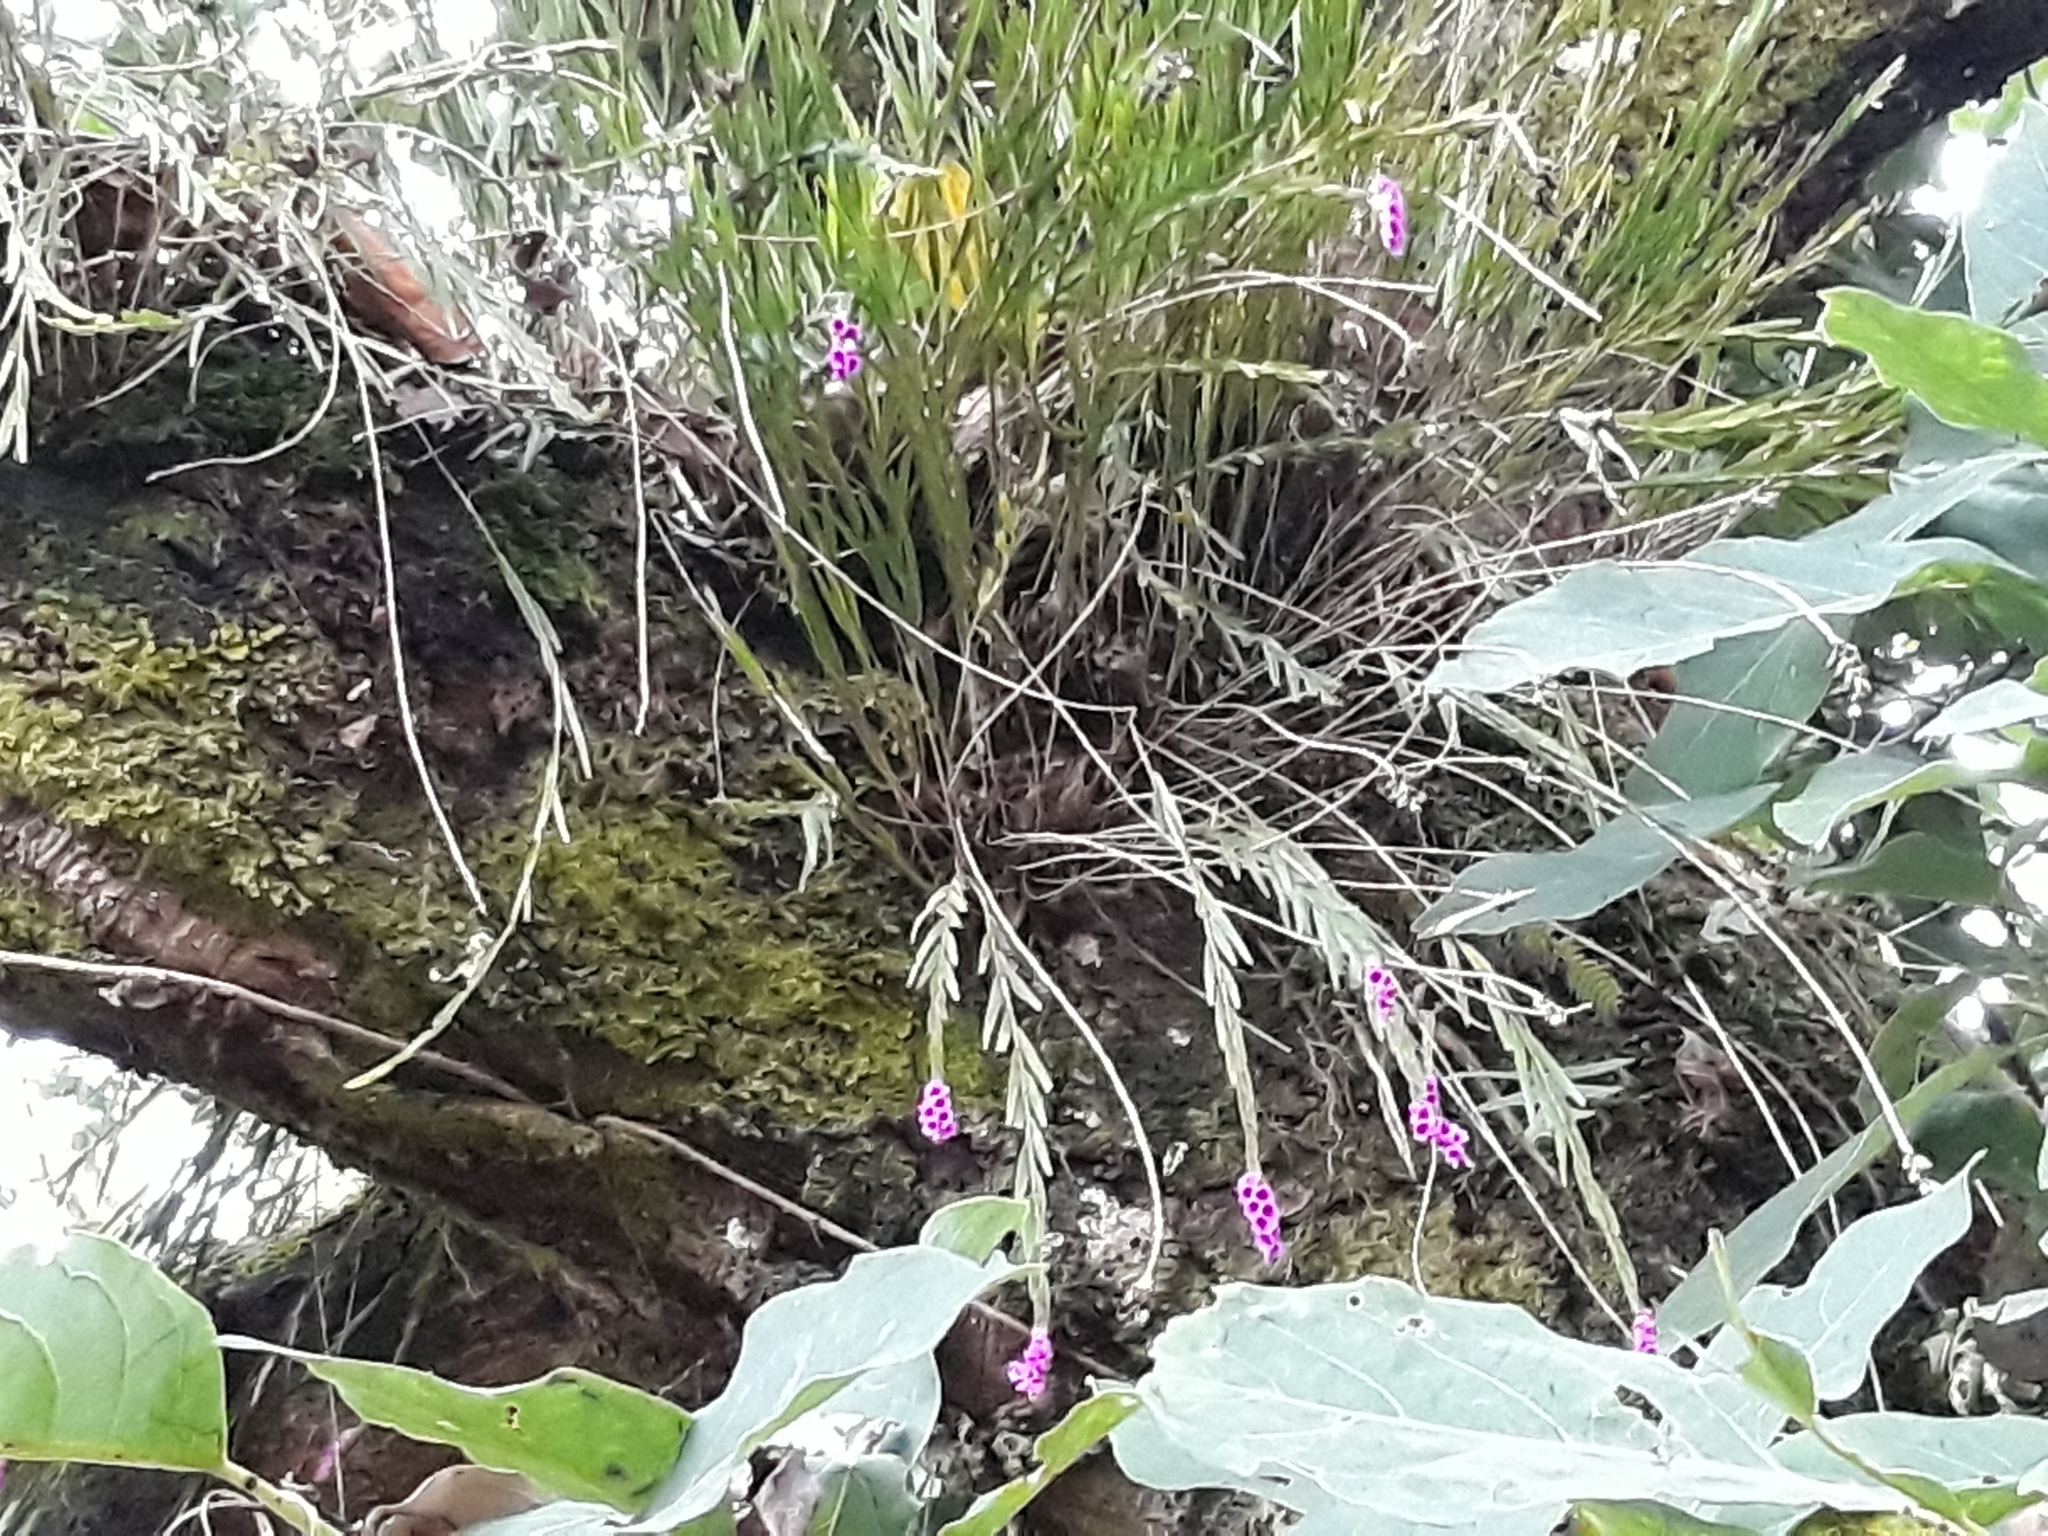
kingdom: Plantae
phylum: Tracheophyta
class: Liliopsida
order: Asparagales
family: Orchidaceae
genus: Isochilus
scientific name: Isochilus major
